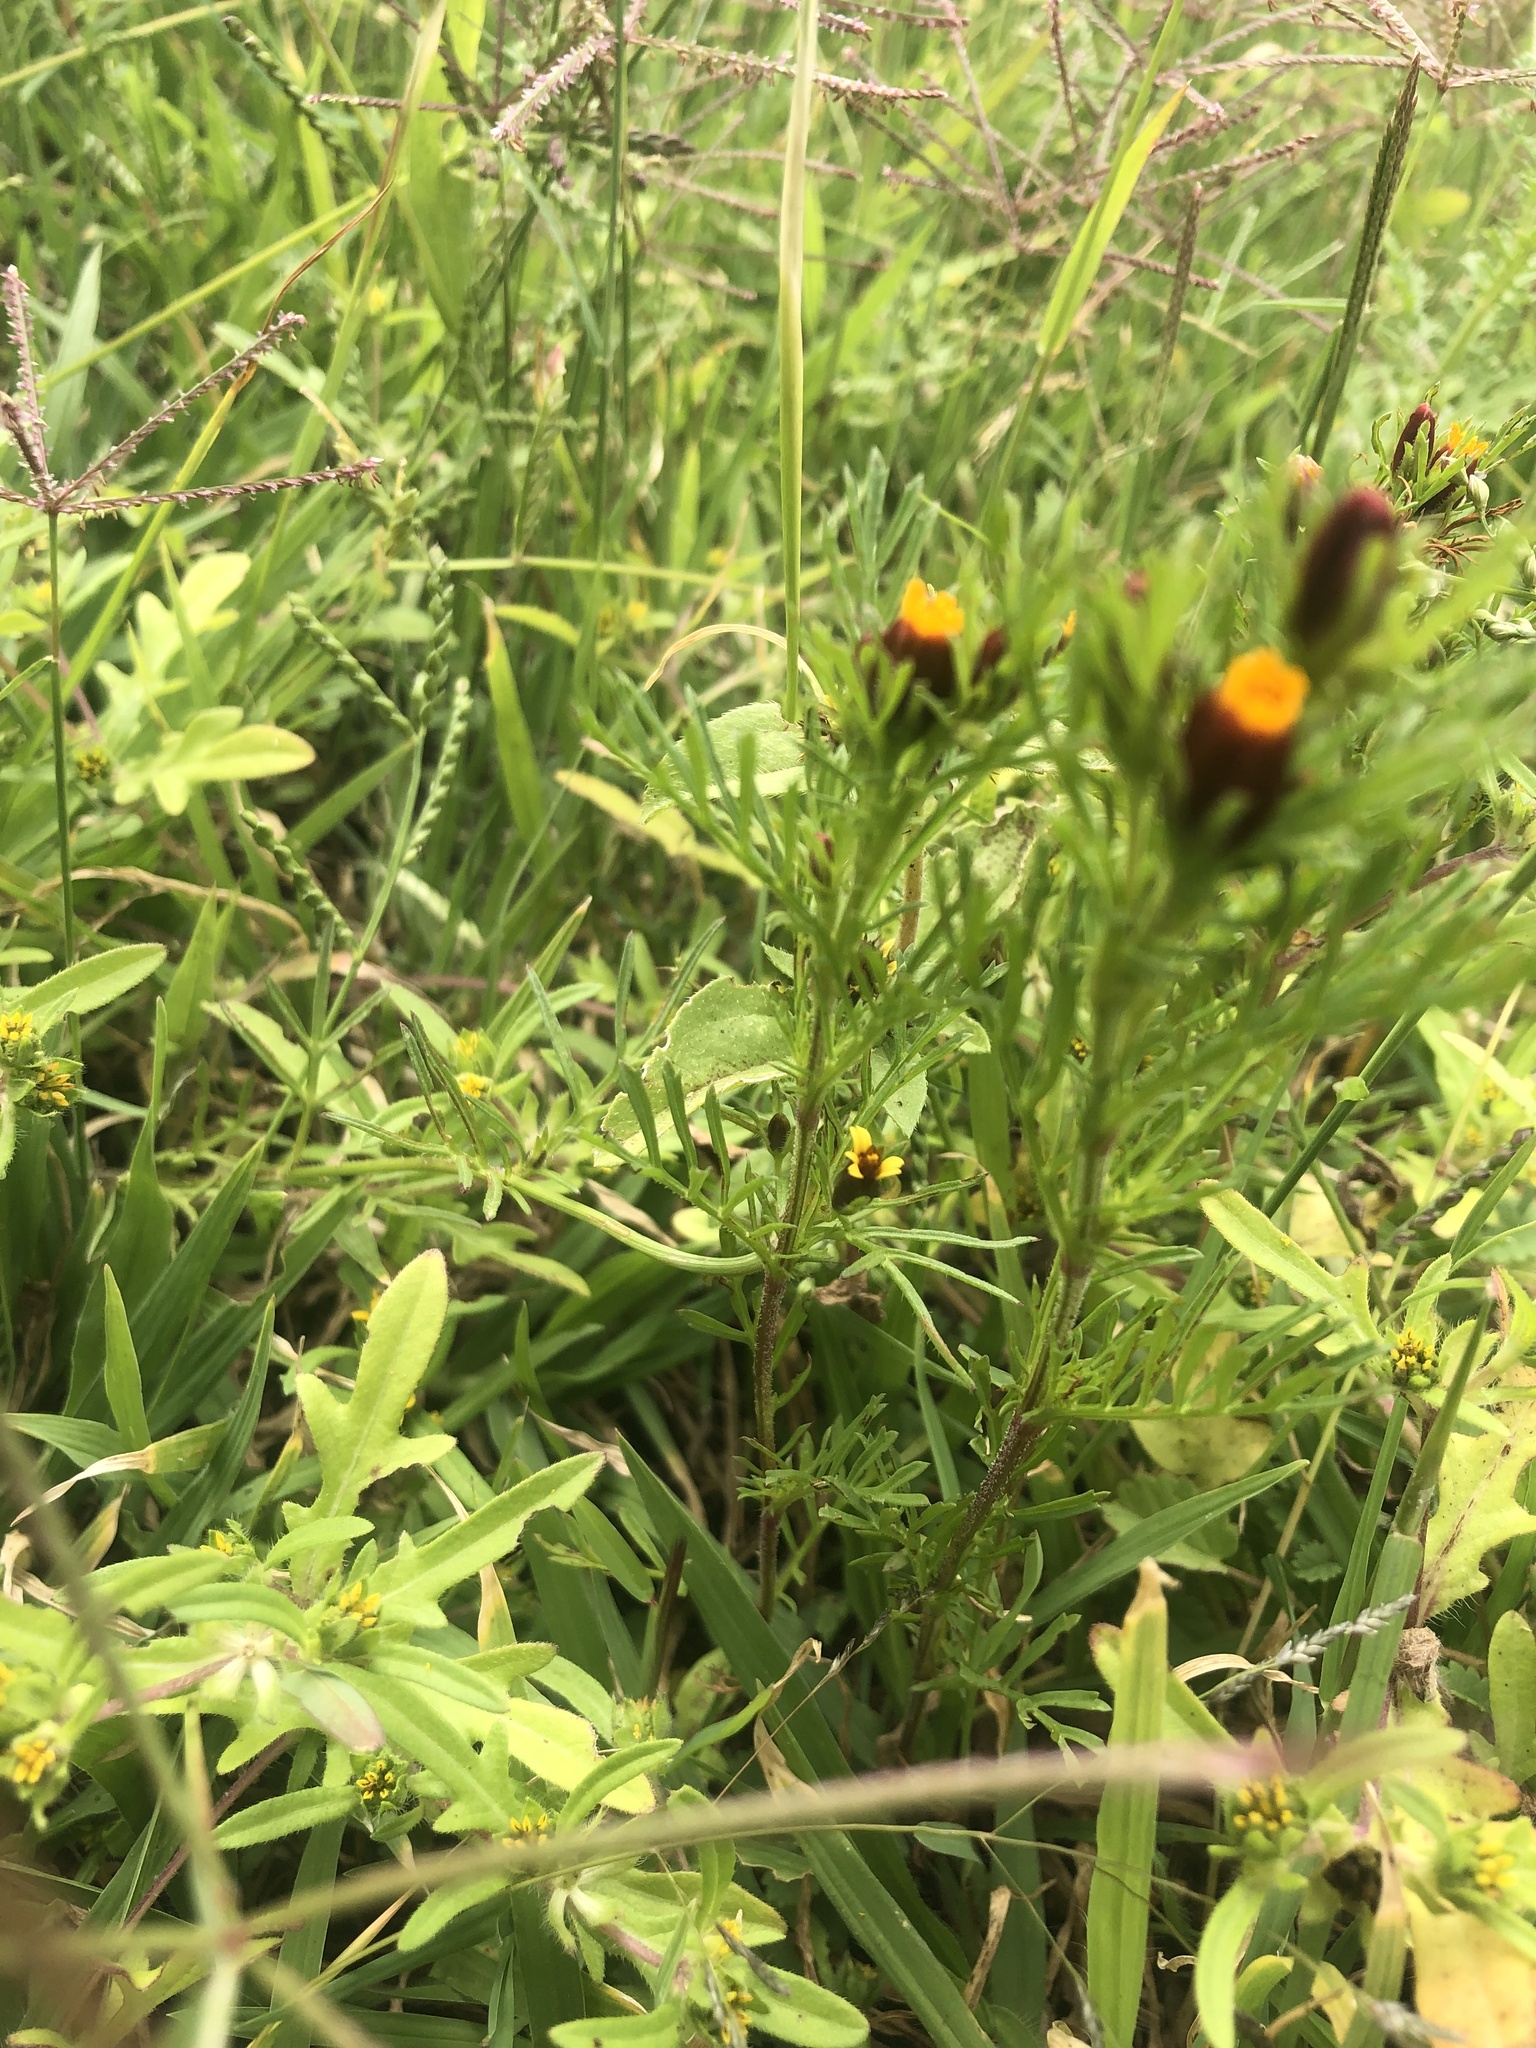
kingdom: Plantae
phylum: Tracheophyta
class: Magnoliopsida
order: Asterales
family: Asteraceae
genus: Dyssodia
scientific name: Dyssodia papposa
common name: Dogweed
